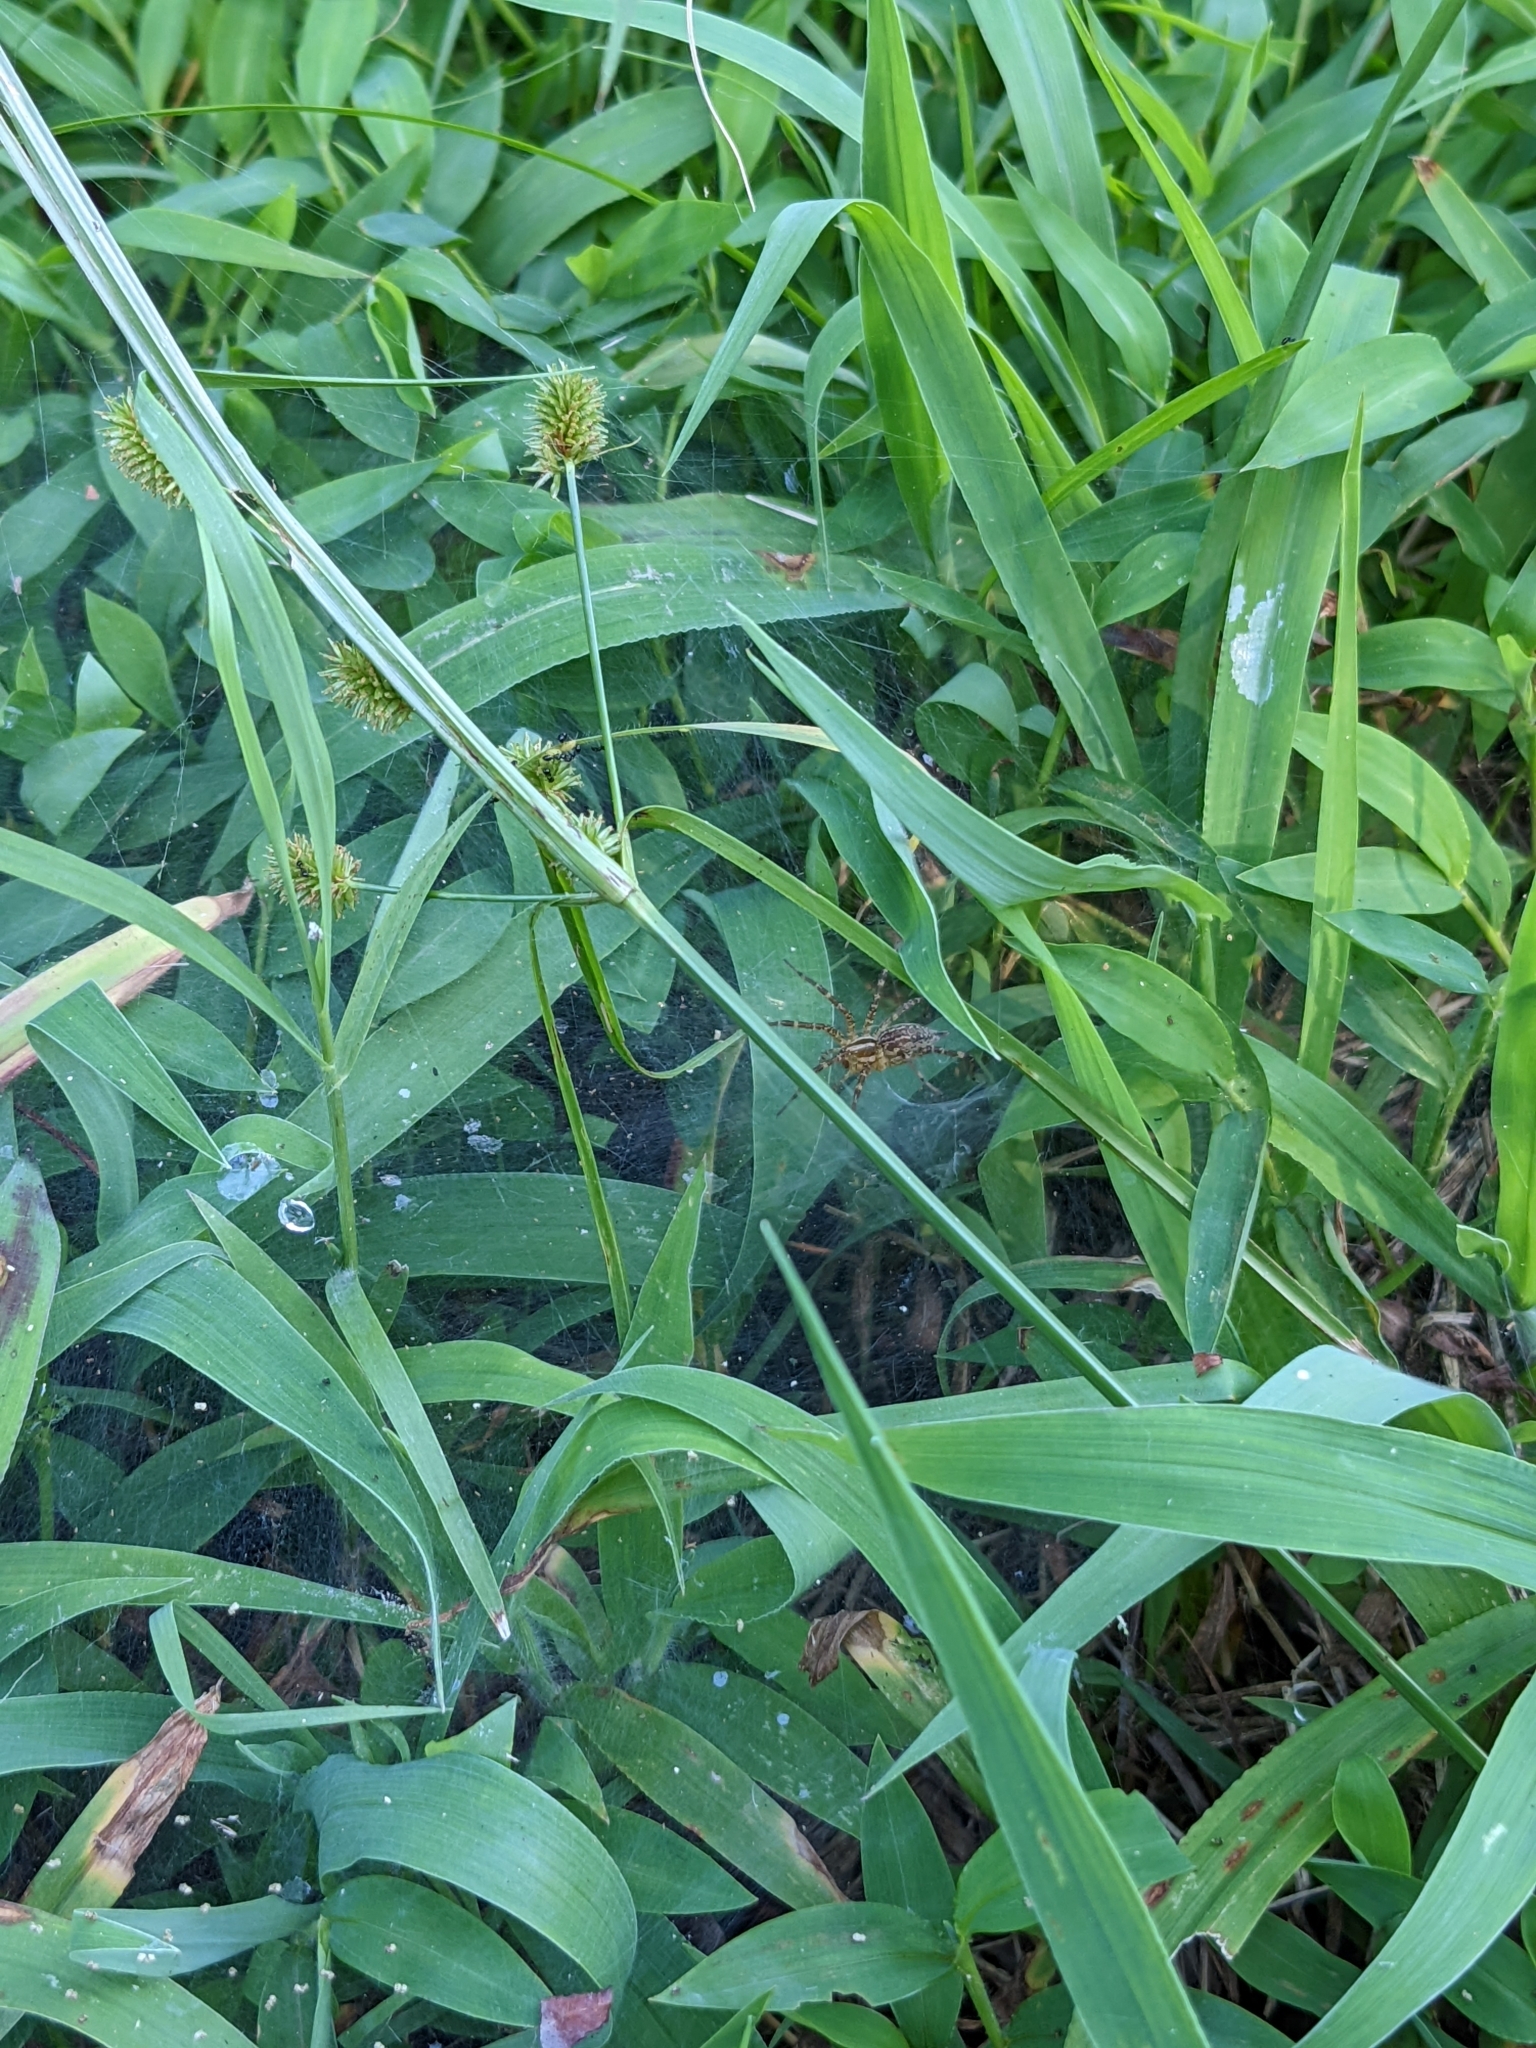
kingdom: Animalia
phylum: Arthropoda
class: Arachnida
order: Araneae
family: Agelenidae
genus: Agelenopsis
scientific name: Agelenopsis
